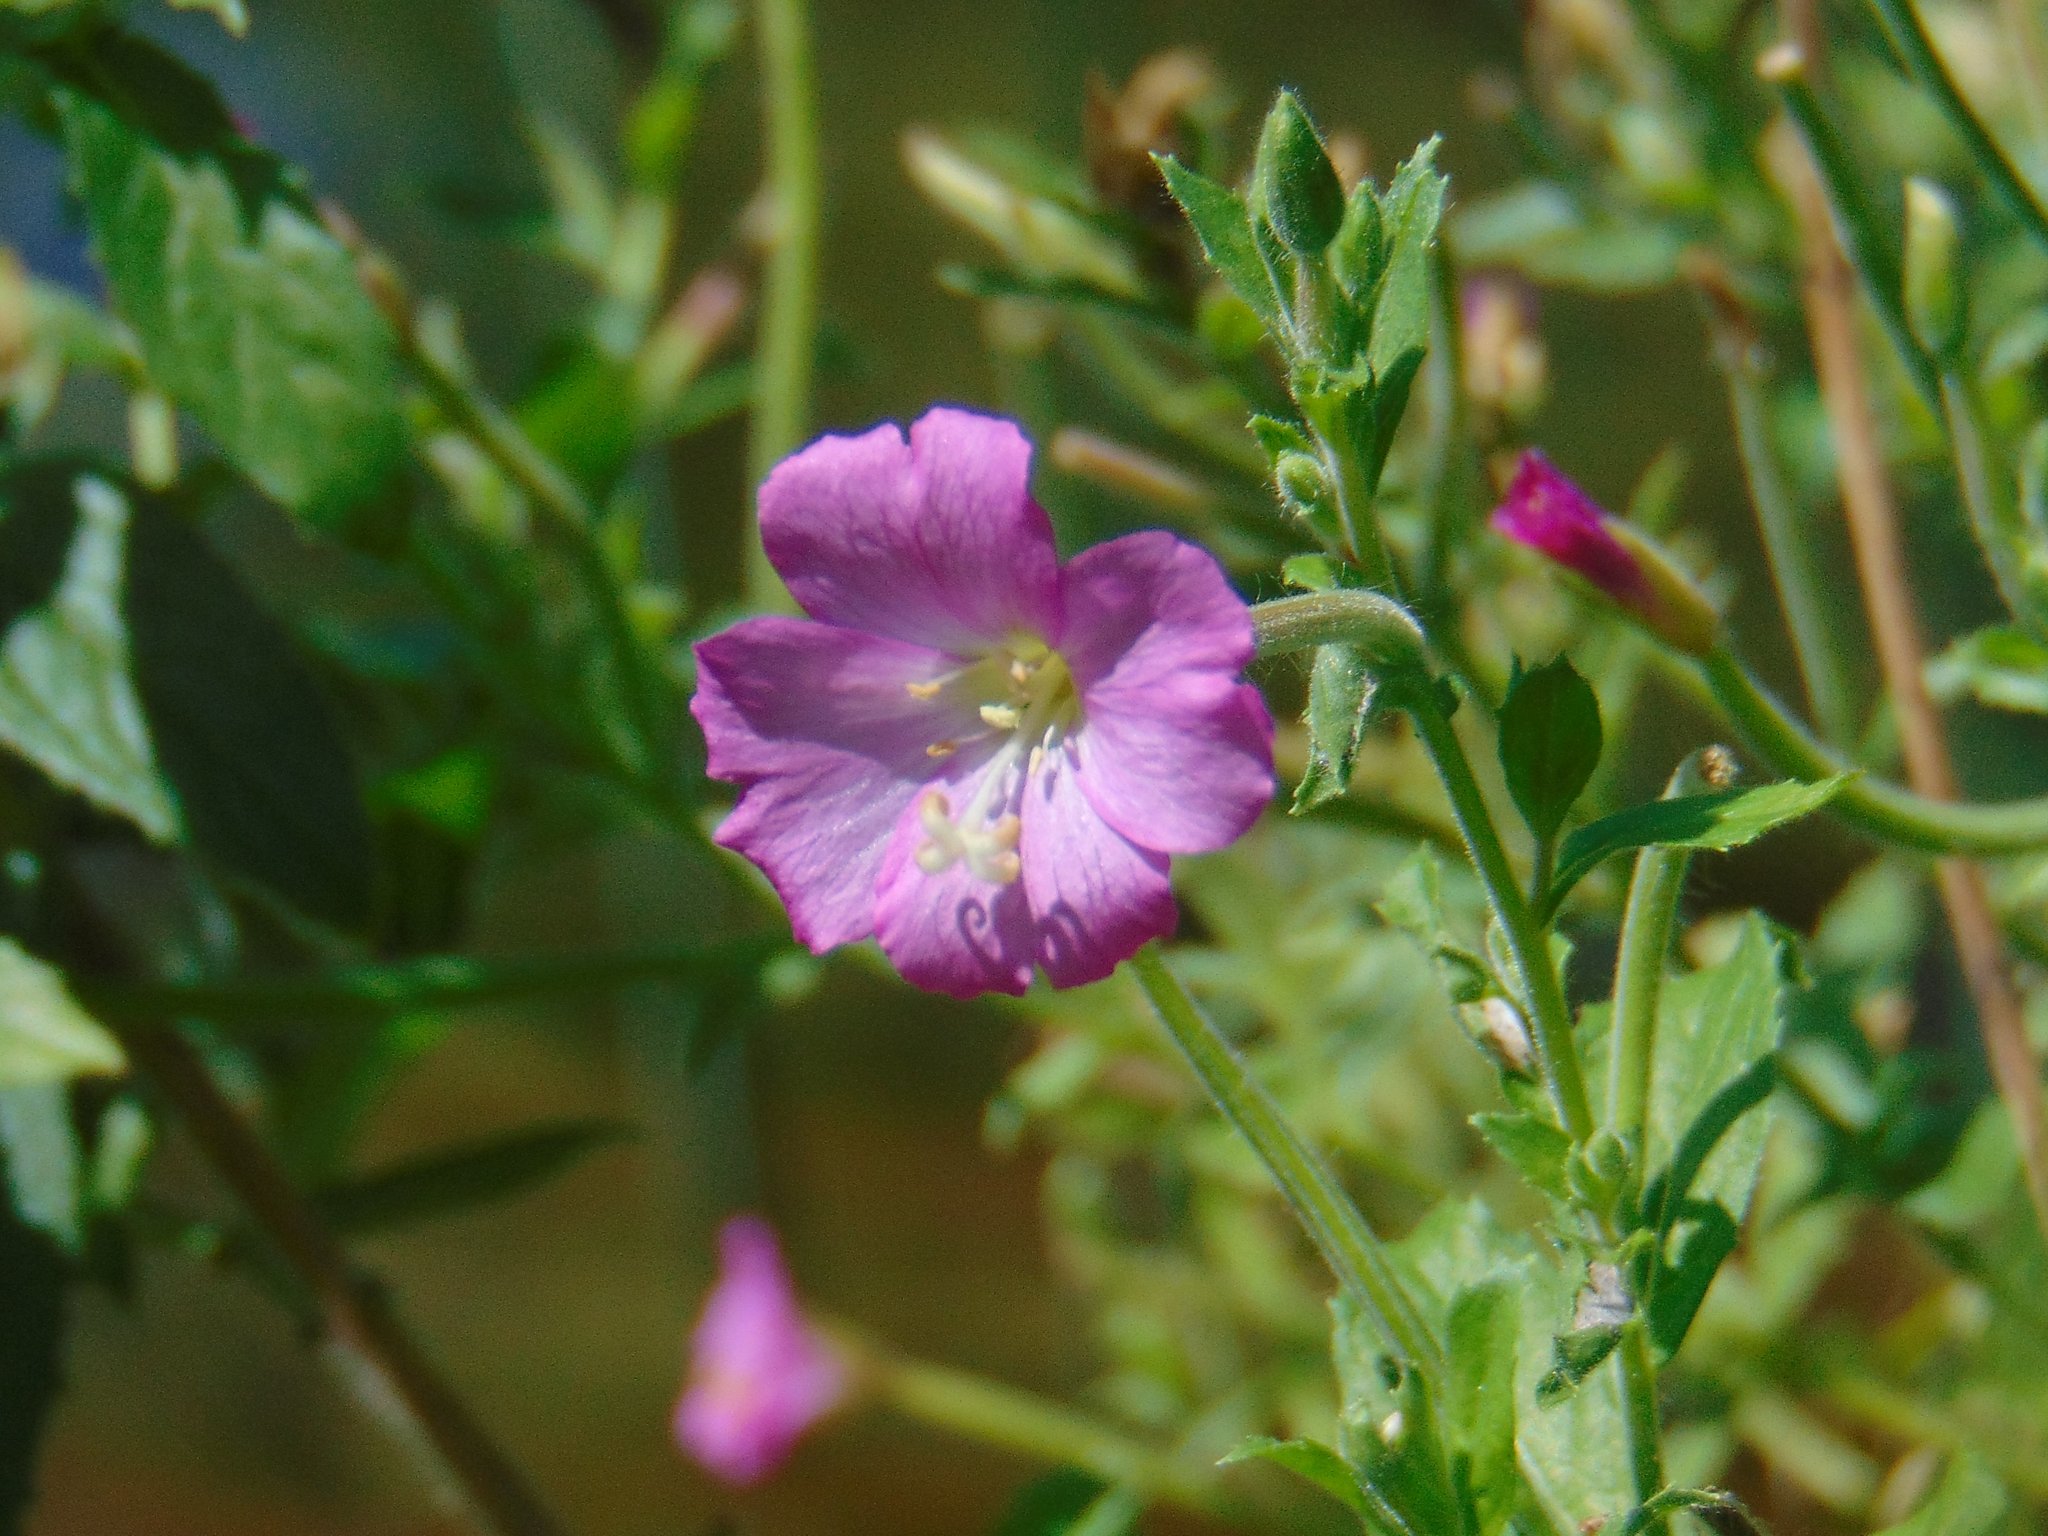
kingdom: Plantae
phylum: Tracheophyta
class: Magnoliopsida
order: Myrtales
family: Onagraceae
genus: Epilobium
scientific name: Epilobium hirsutum
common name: Great willowherb
